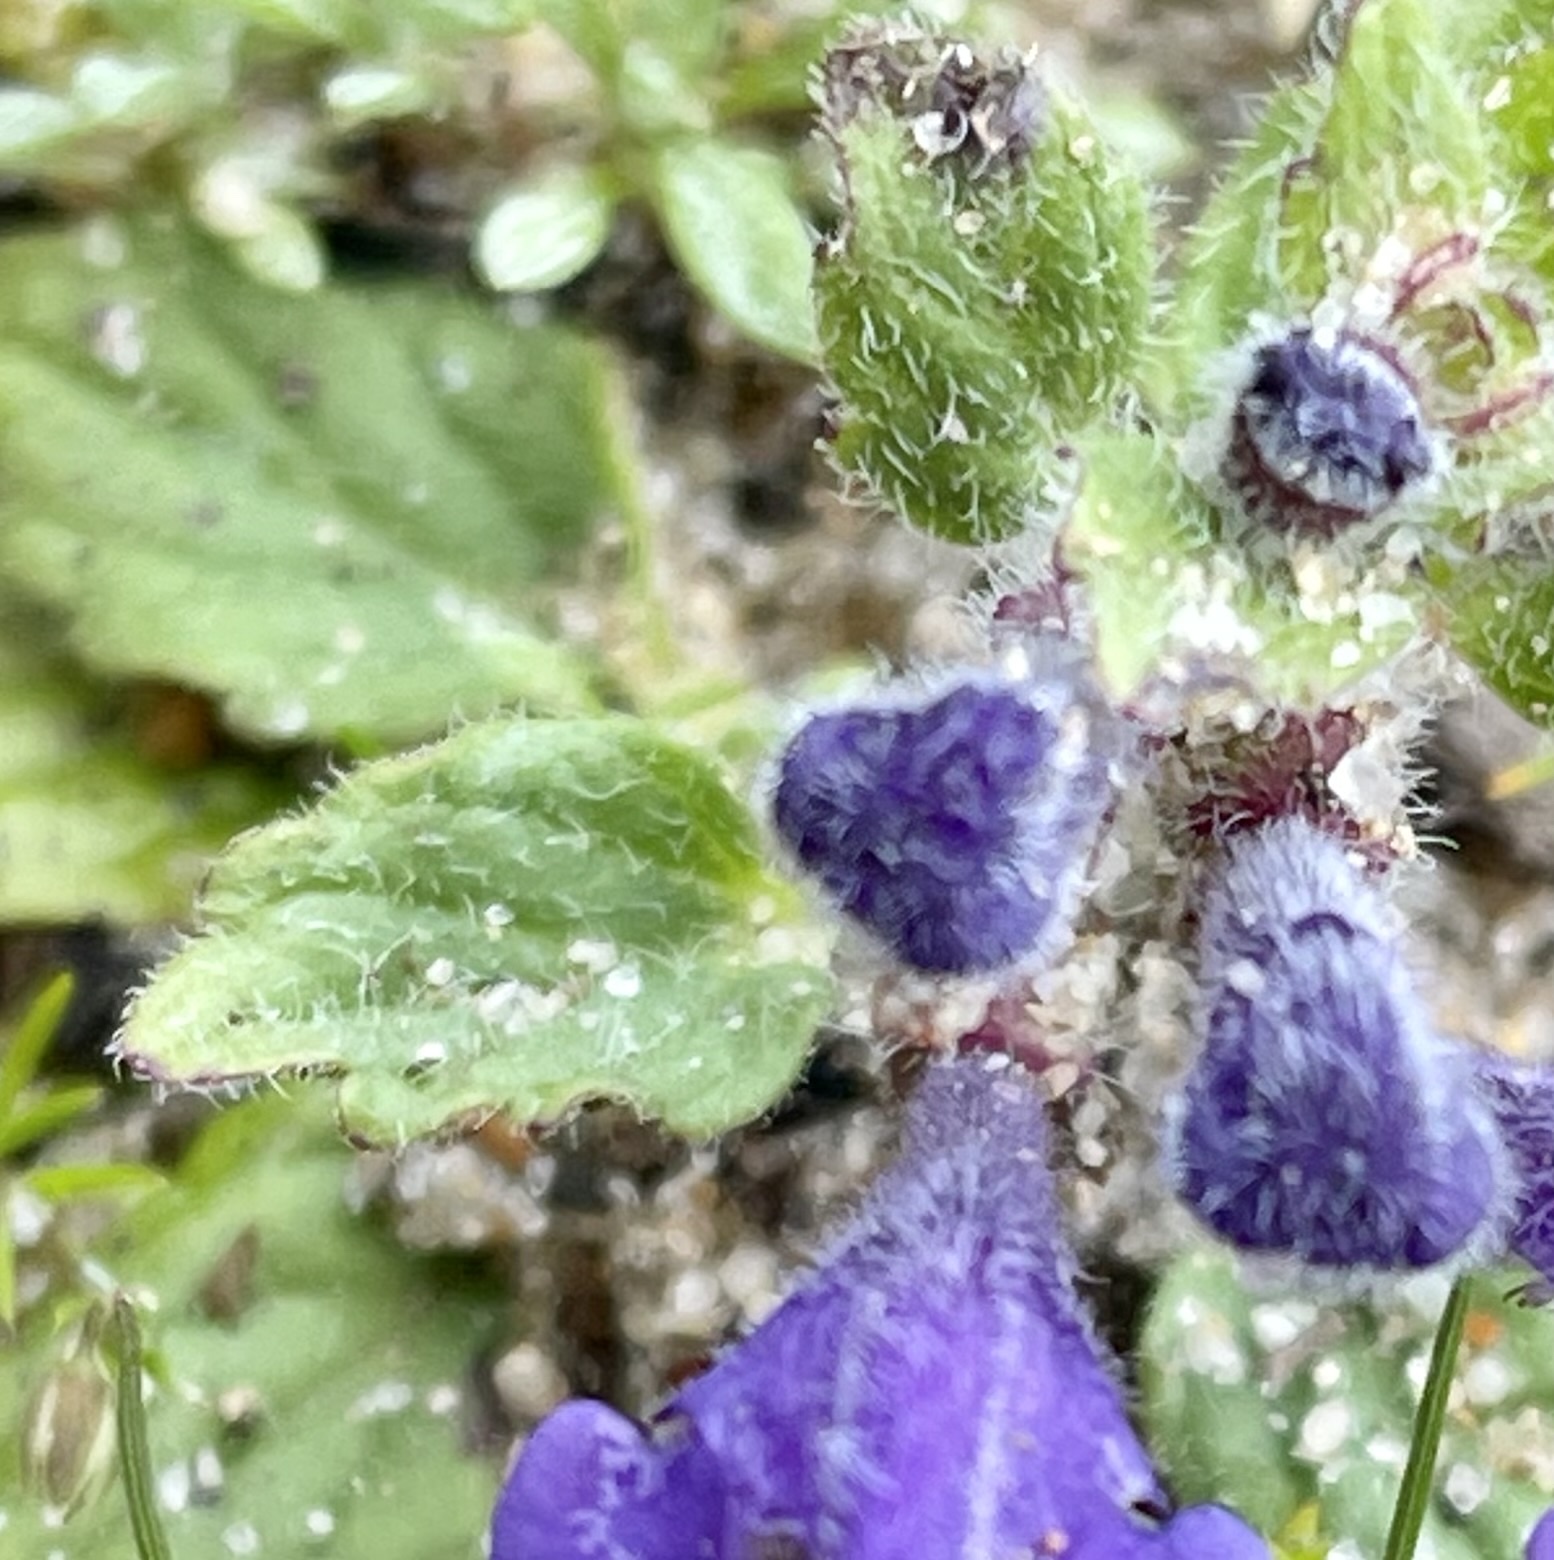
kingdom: Plantae
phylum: Tracheophyta
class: Magnoliopsida
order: Lamiales
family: Lamiaceae
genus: Scutellaria
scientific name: Scutellaria tuberosa
